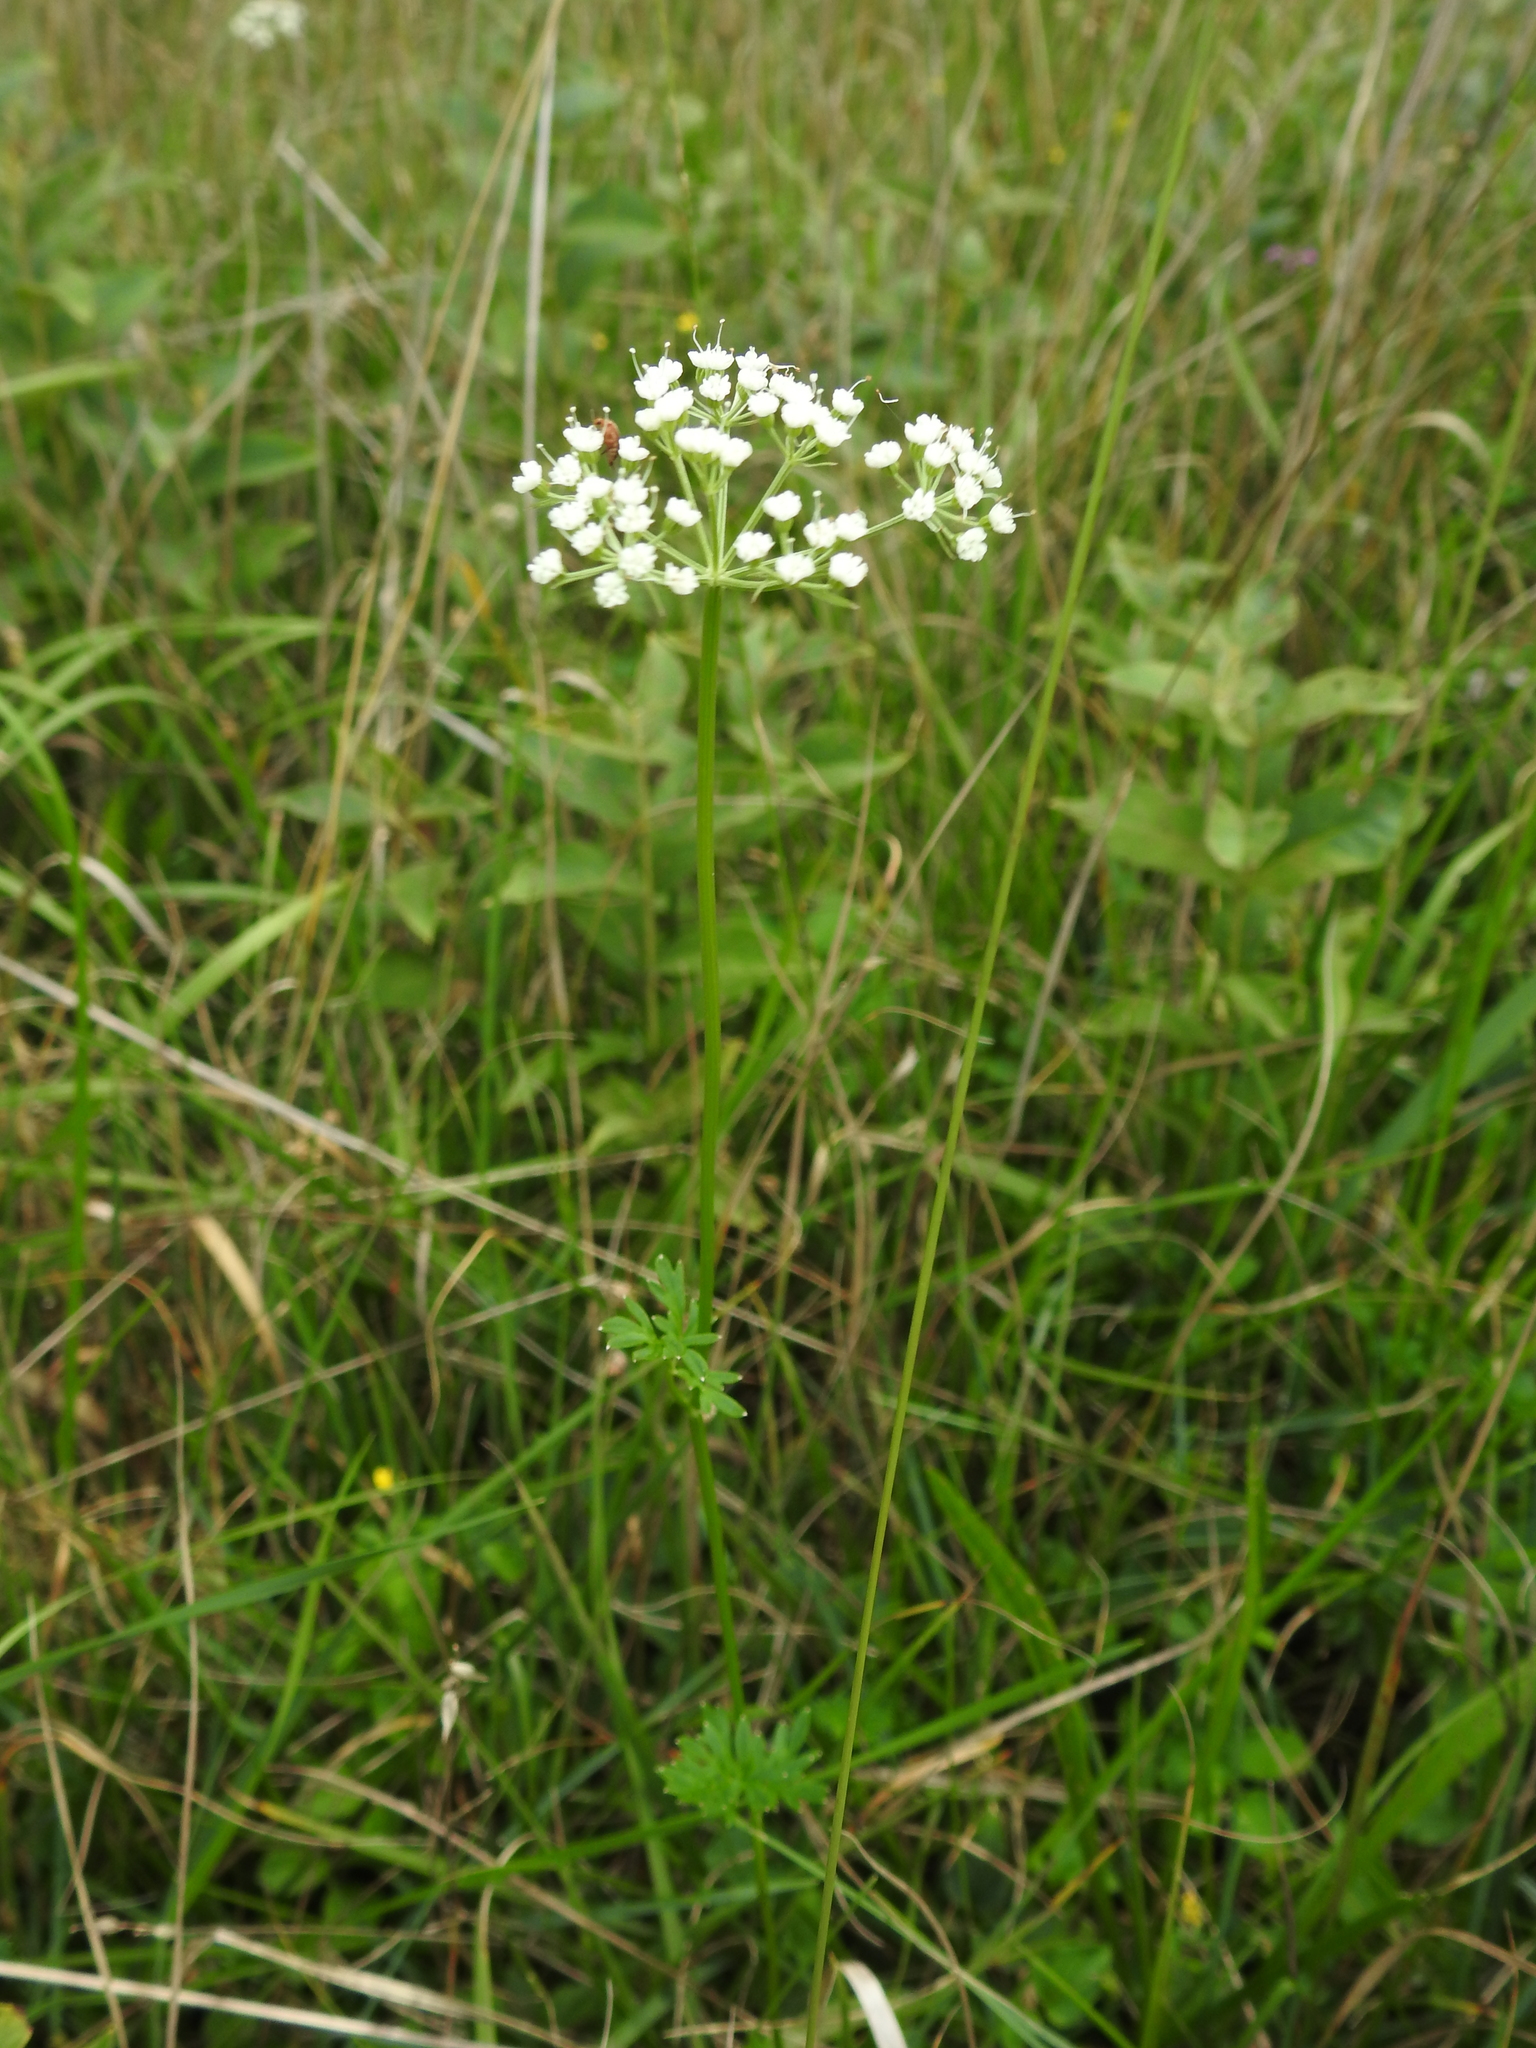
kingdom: Plantae
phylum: Tracheophyta
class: Magnoliopsida
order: Apiales
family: Apiaceae
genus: Selinum
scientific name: Selinum carvifolia
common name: Cambridge milk-parsley
